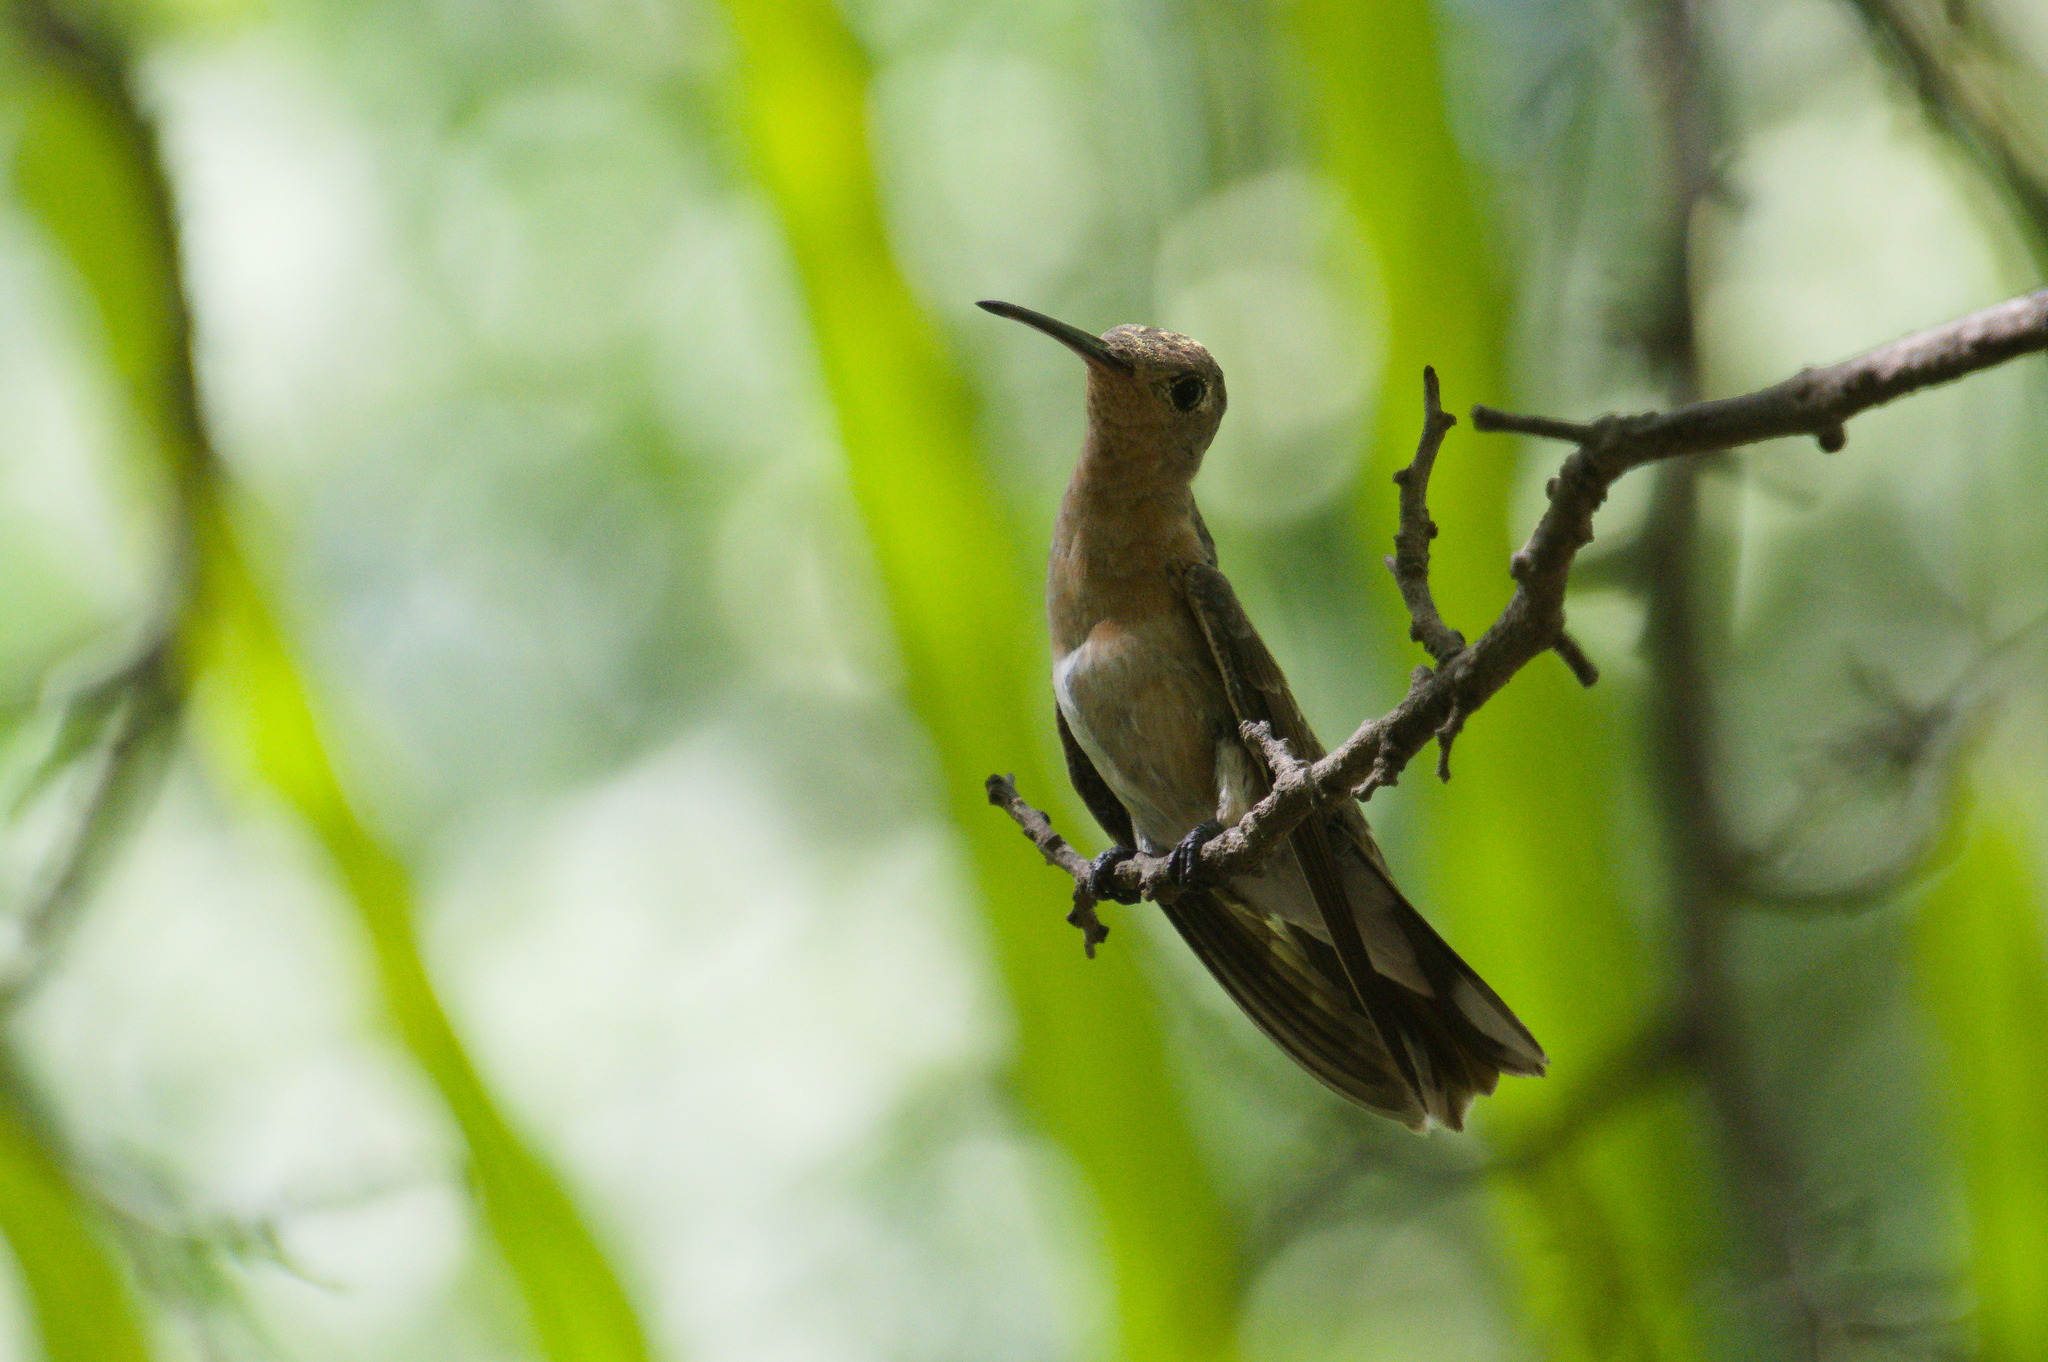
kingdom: Animalia
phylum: Chordata
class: Aves
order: Apodiformes
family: Trochilidae
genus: Leucippus
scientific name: Leucippus fallax
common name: Buffy hummingbird
